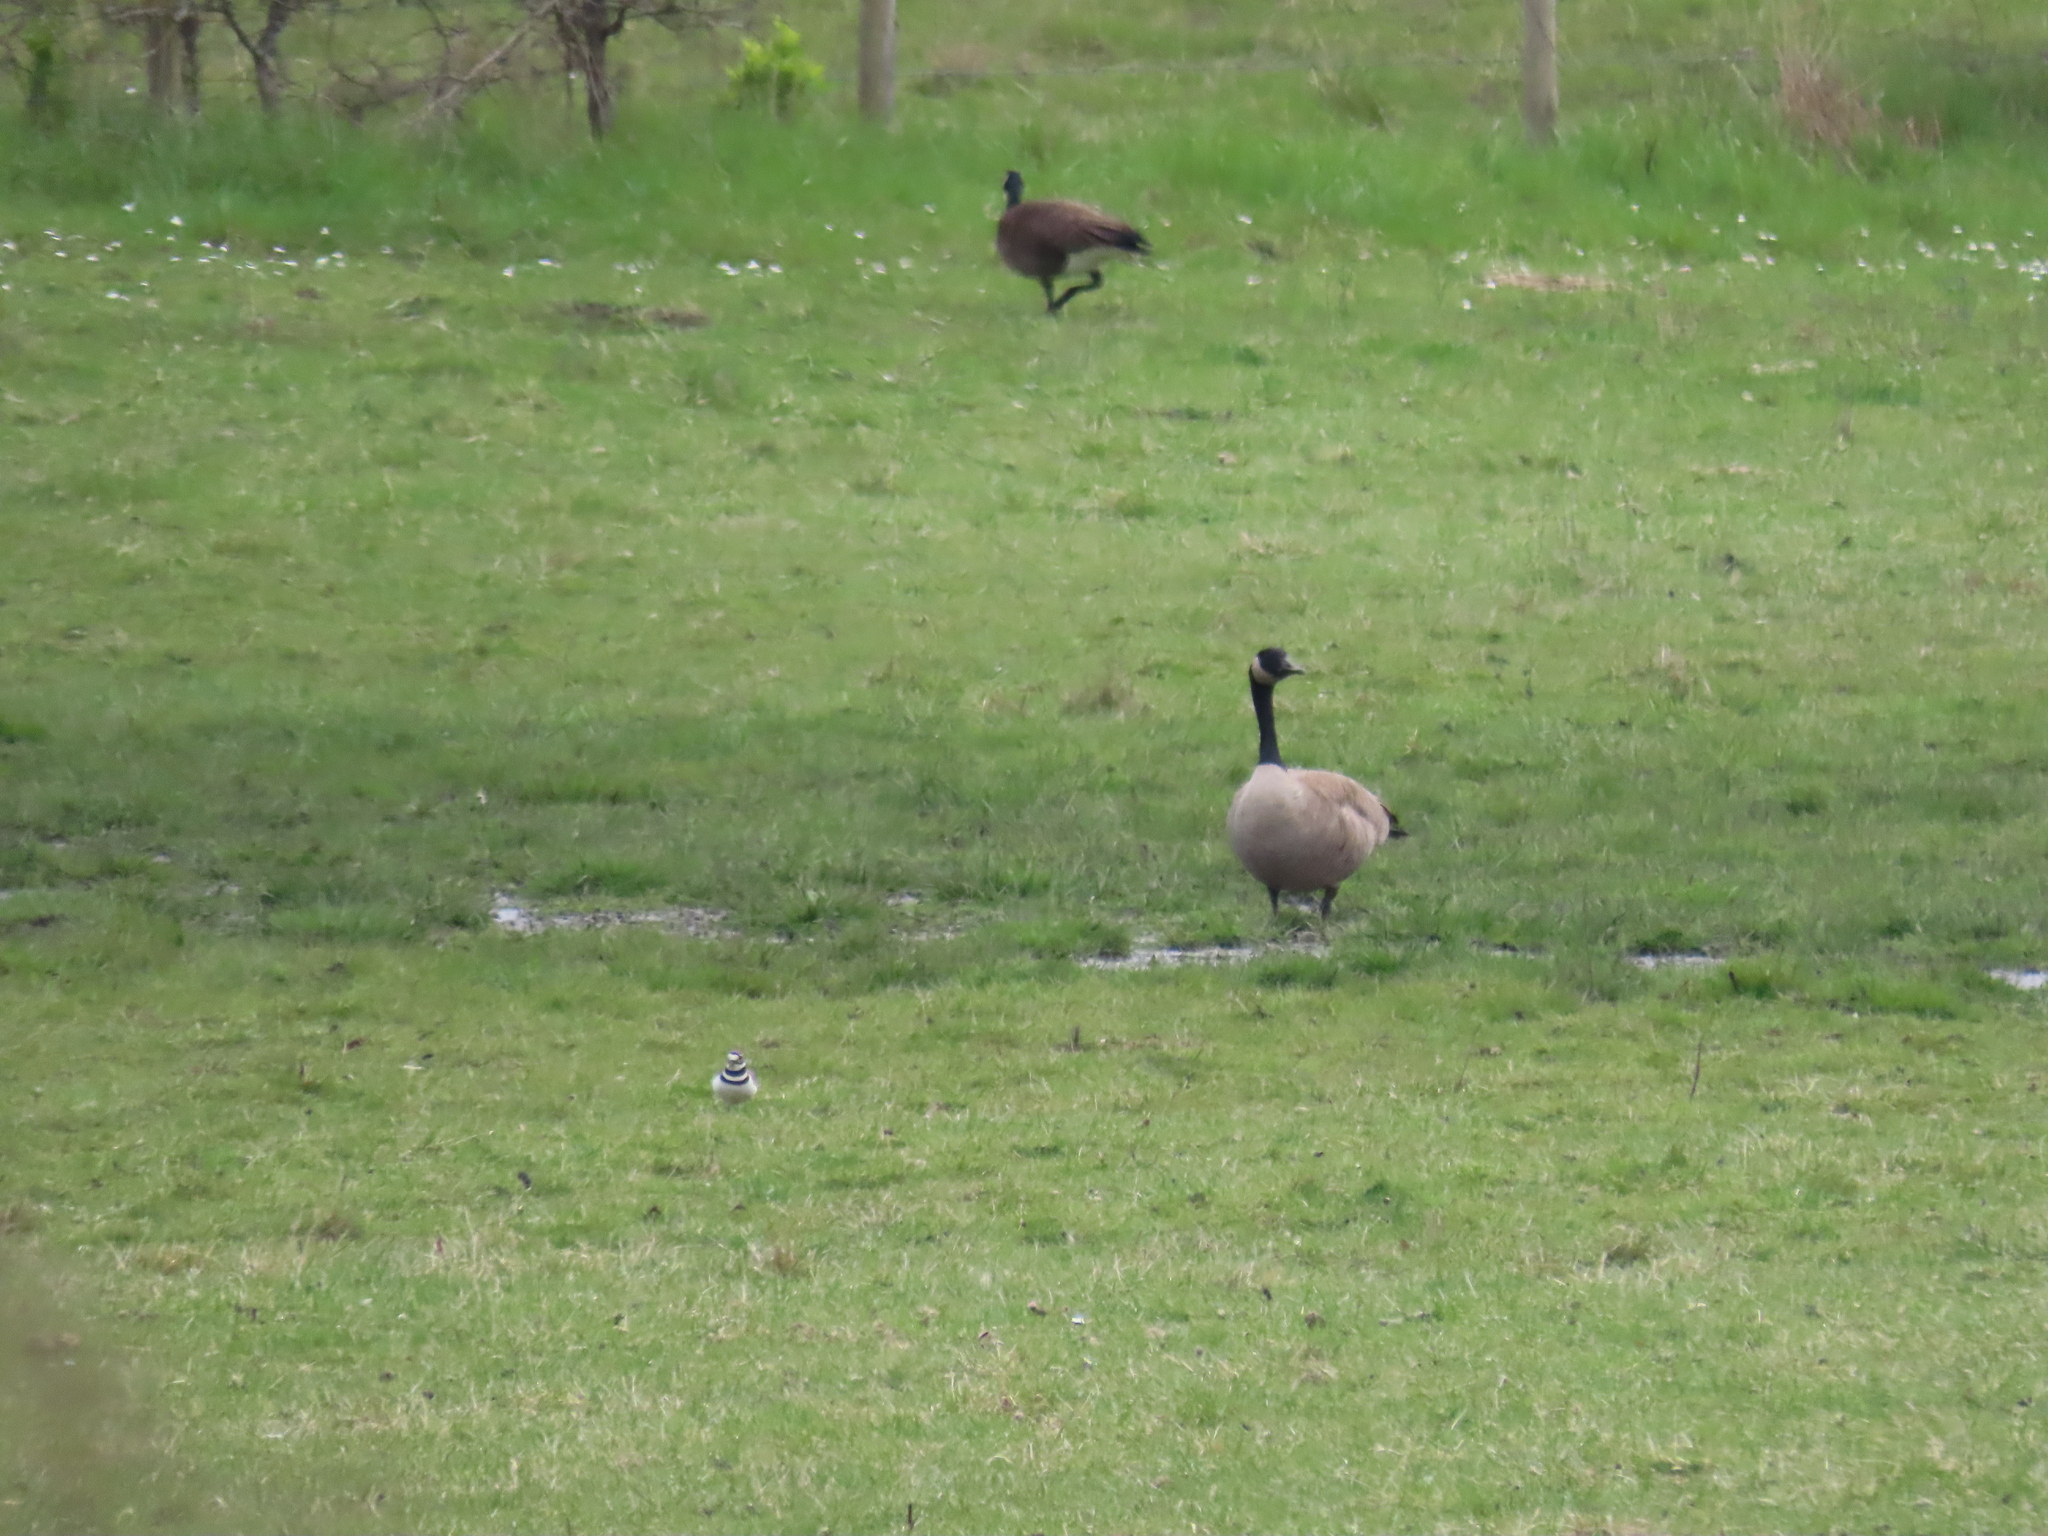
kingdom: Animalia
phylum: Chordata
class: Aves
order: Charadriiformes
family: Charadriidae
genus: Charadrius
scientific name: Charadrius vociferus
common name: Killdeer
